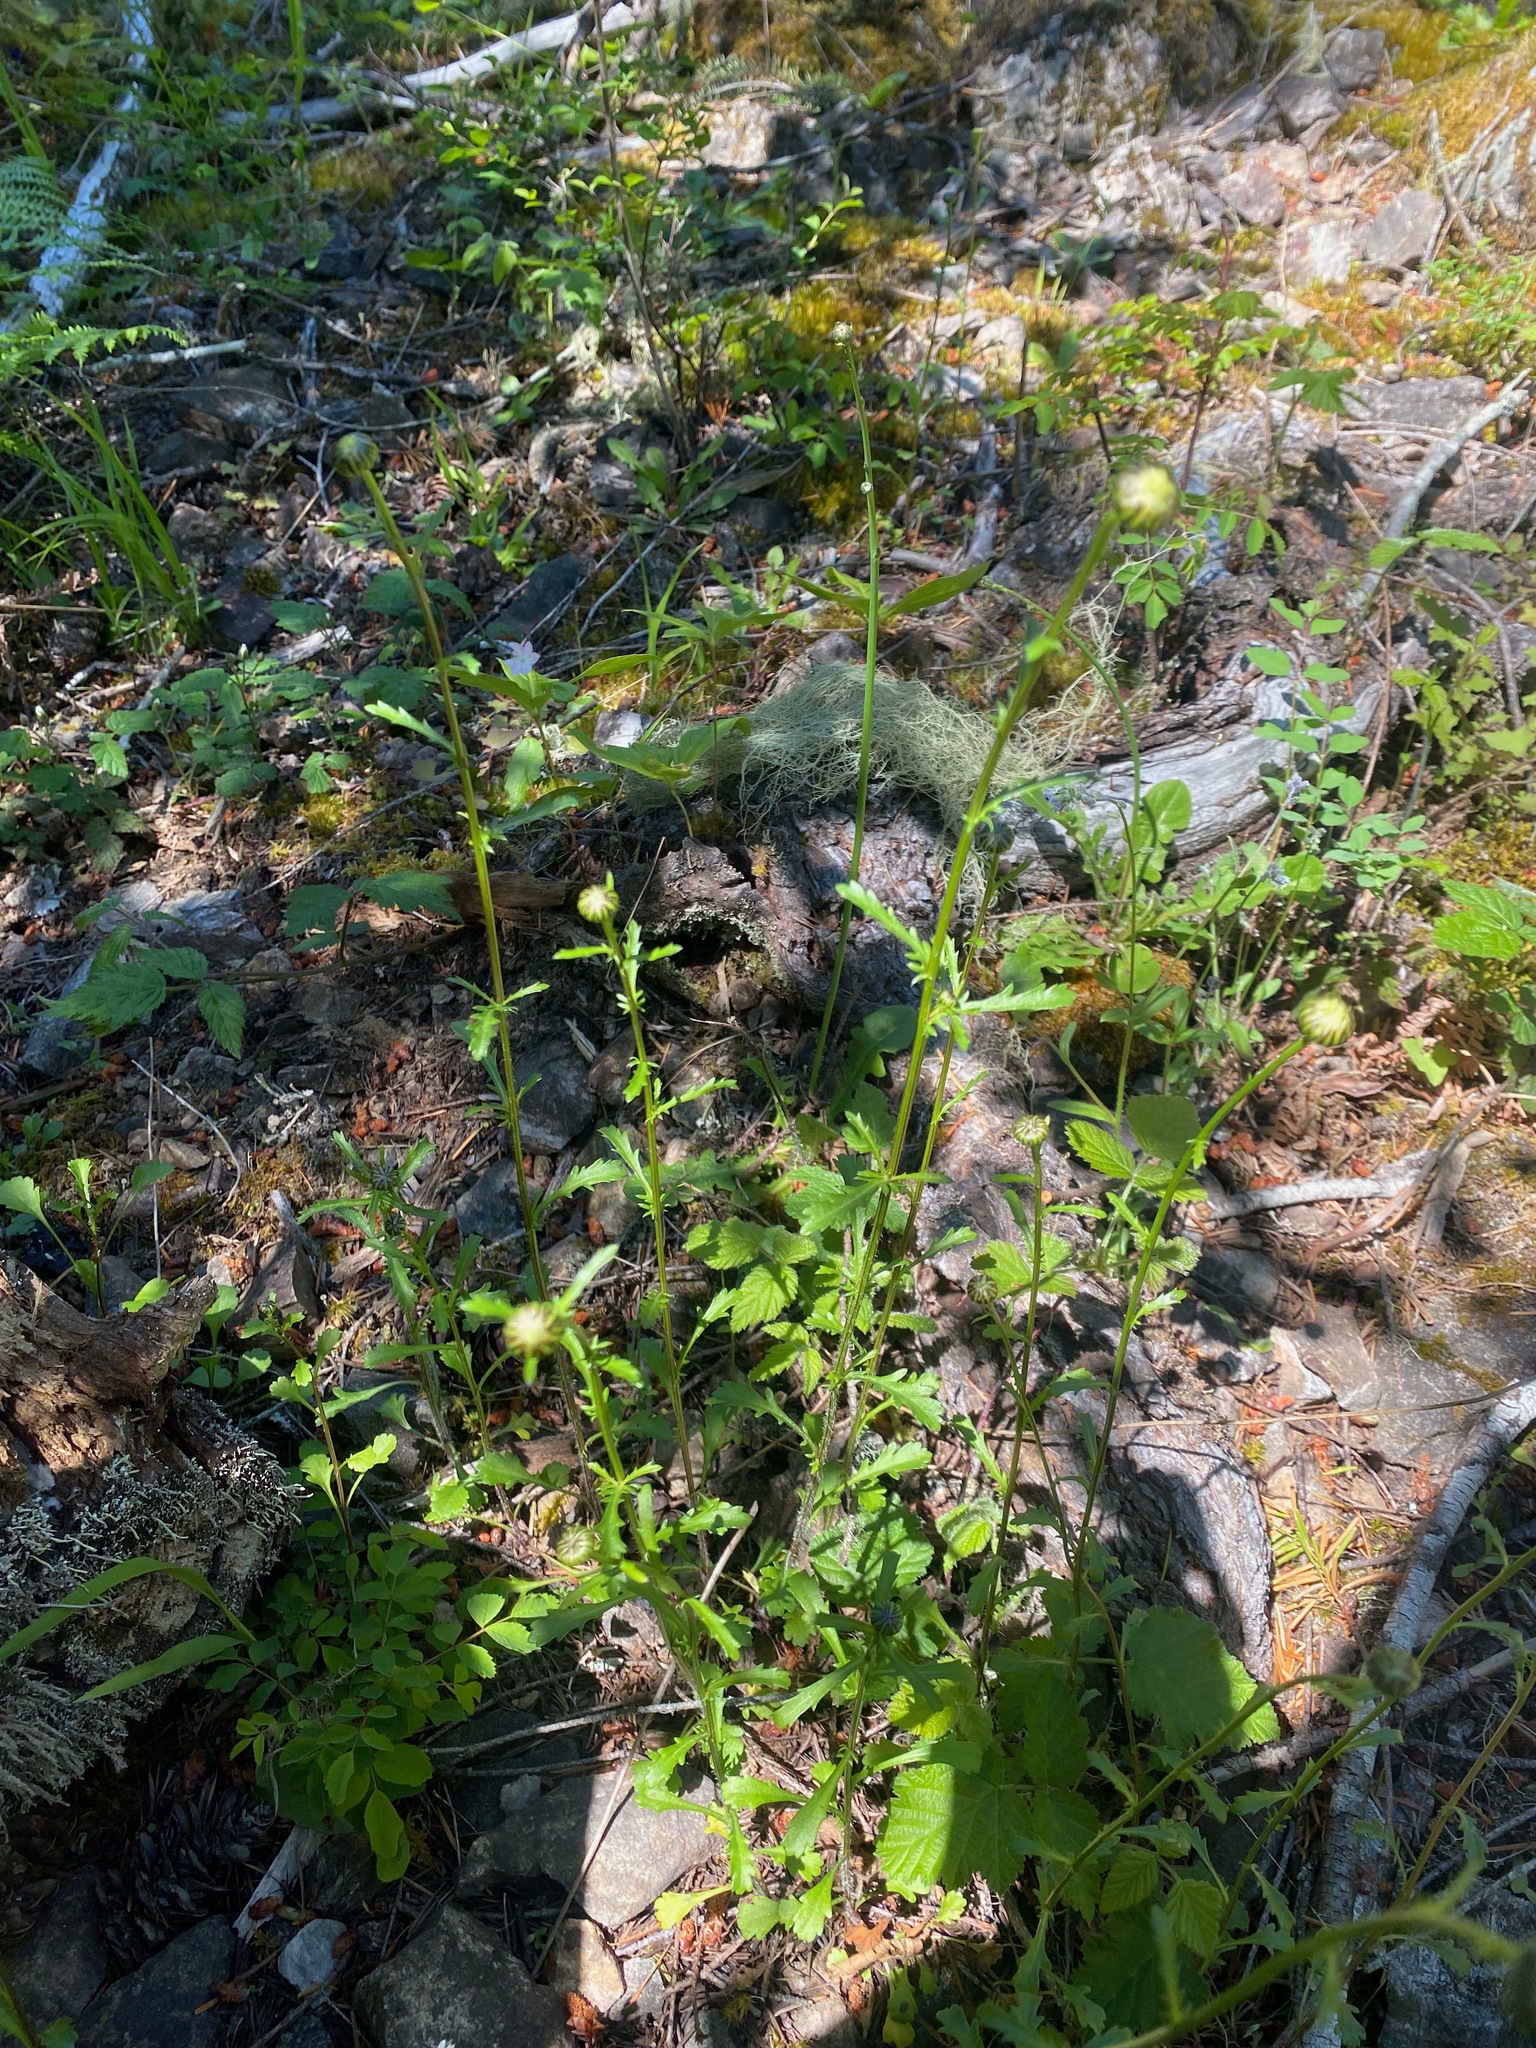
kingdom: Plantae
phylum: Tracheophyta
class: Magnoliopsida
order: Asterales
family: Asteraceae
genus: Leucanthemum
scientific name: Leucanthemum vulgare
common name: Oxeye daisy
